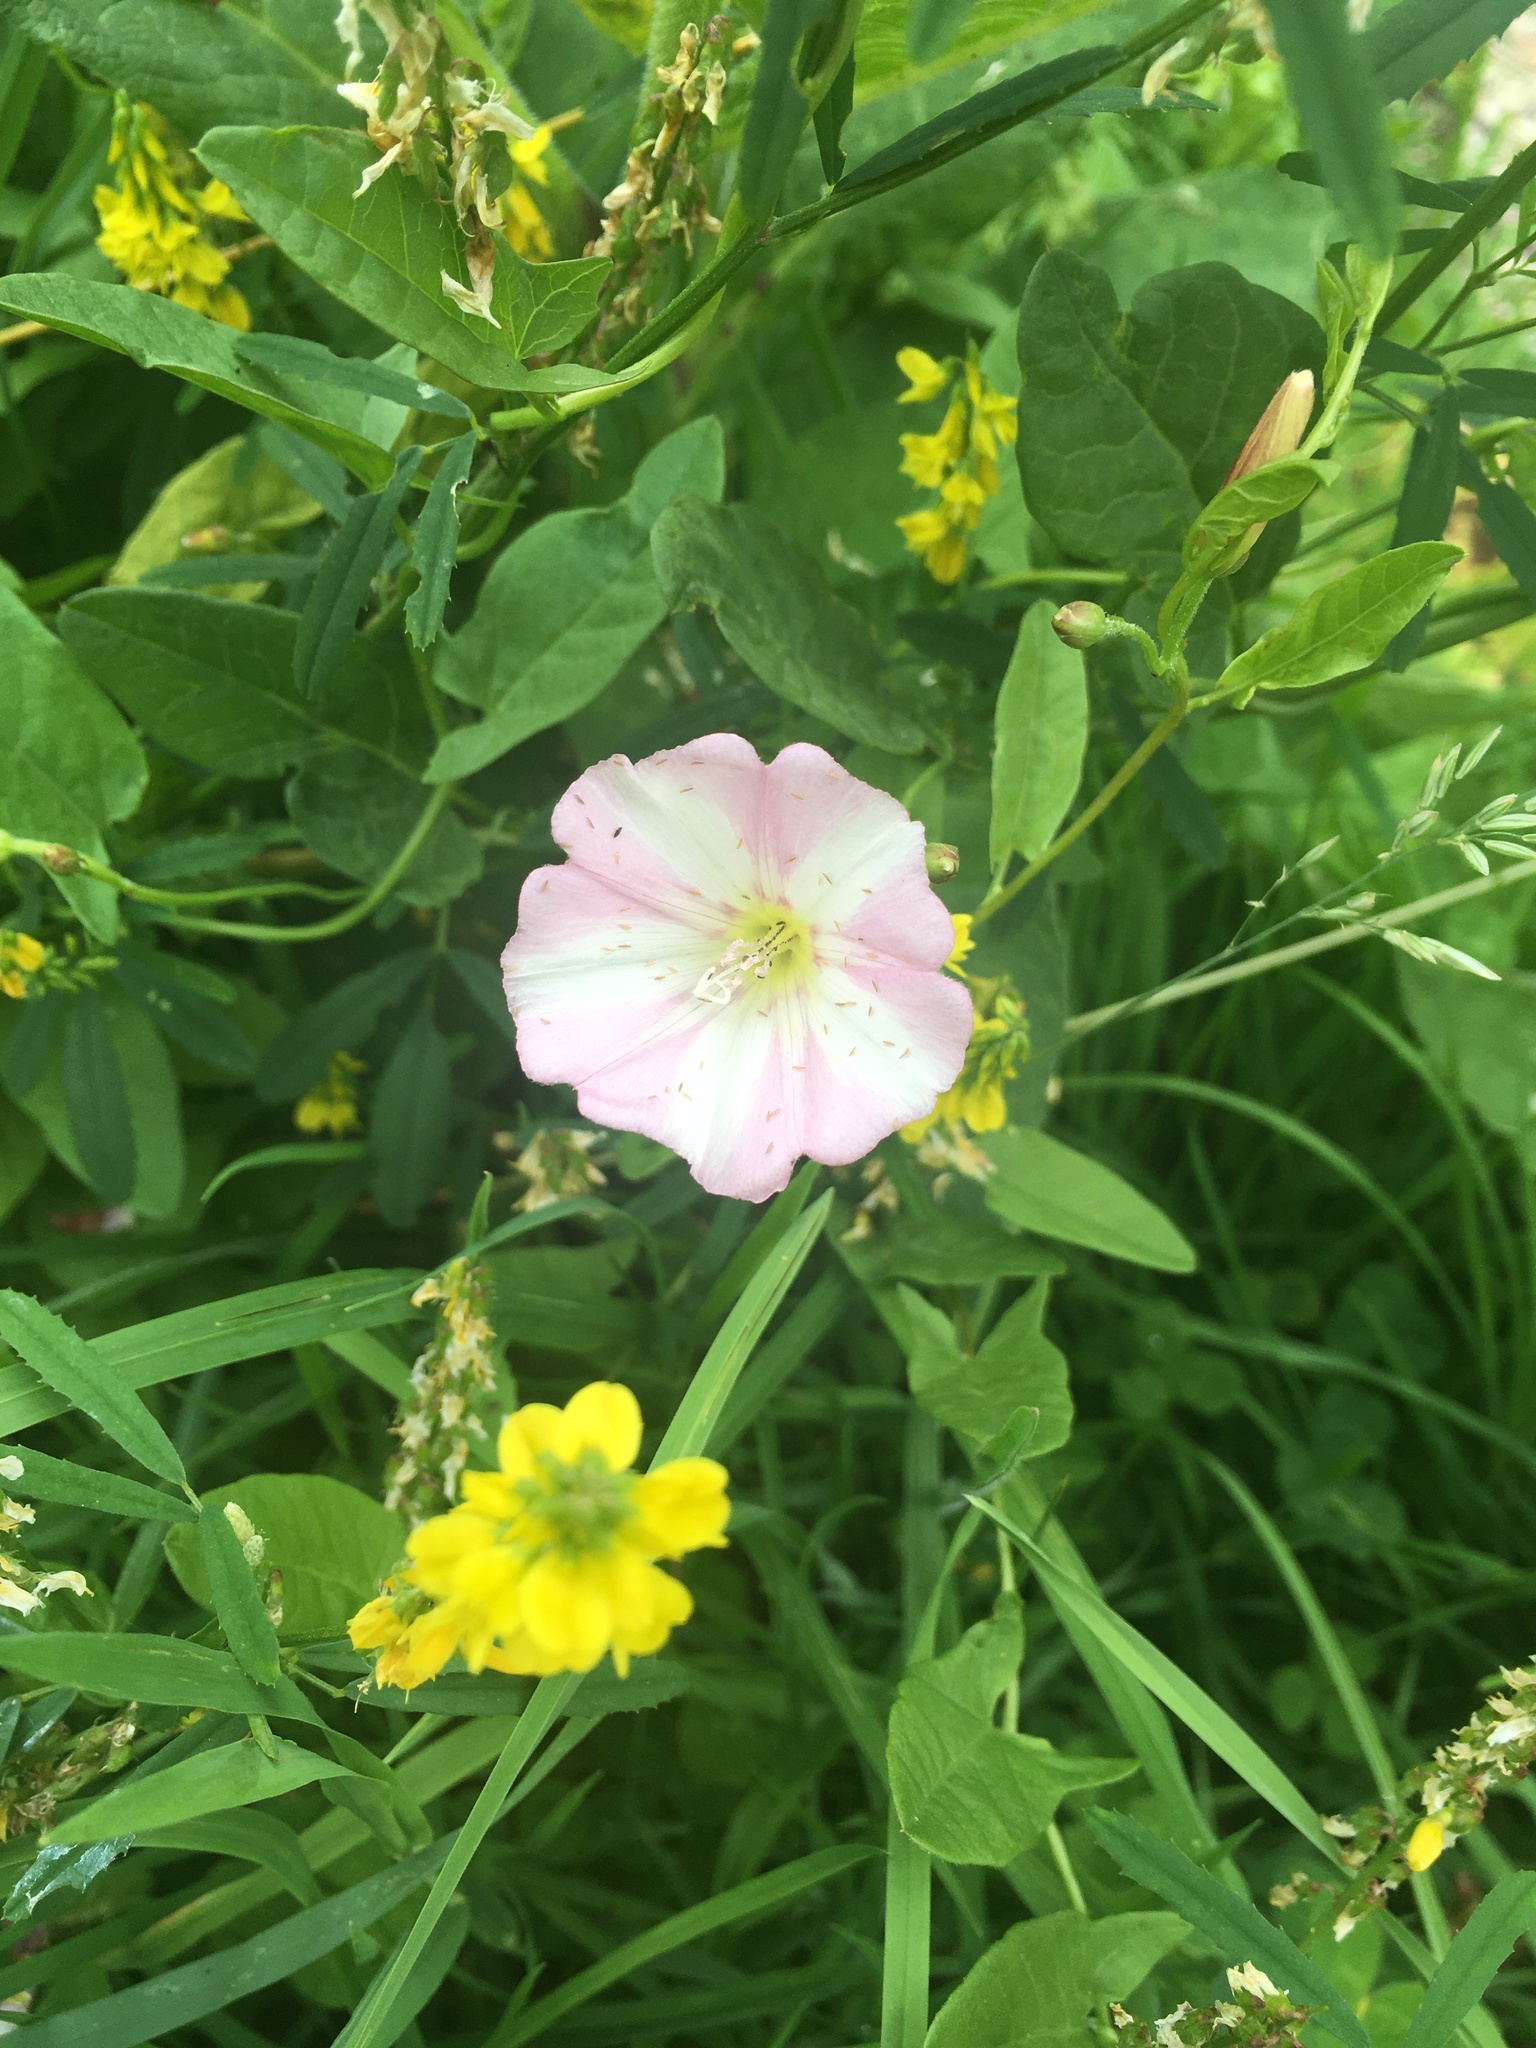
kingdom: Plantae
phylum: Tracheophyta
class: Magnoliopsida
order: Solanales
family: Convolvulaceae
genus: Convolvulus
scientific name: Convolvulus arvensis
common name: Field bindweed
